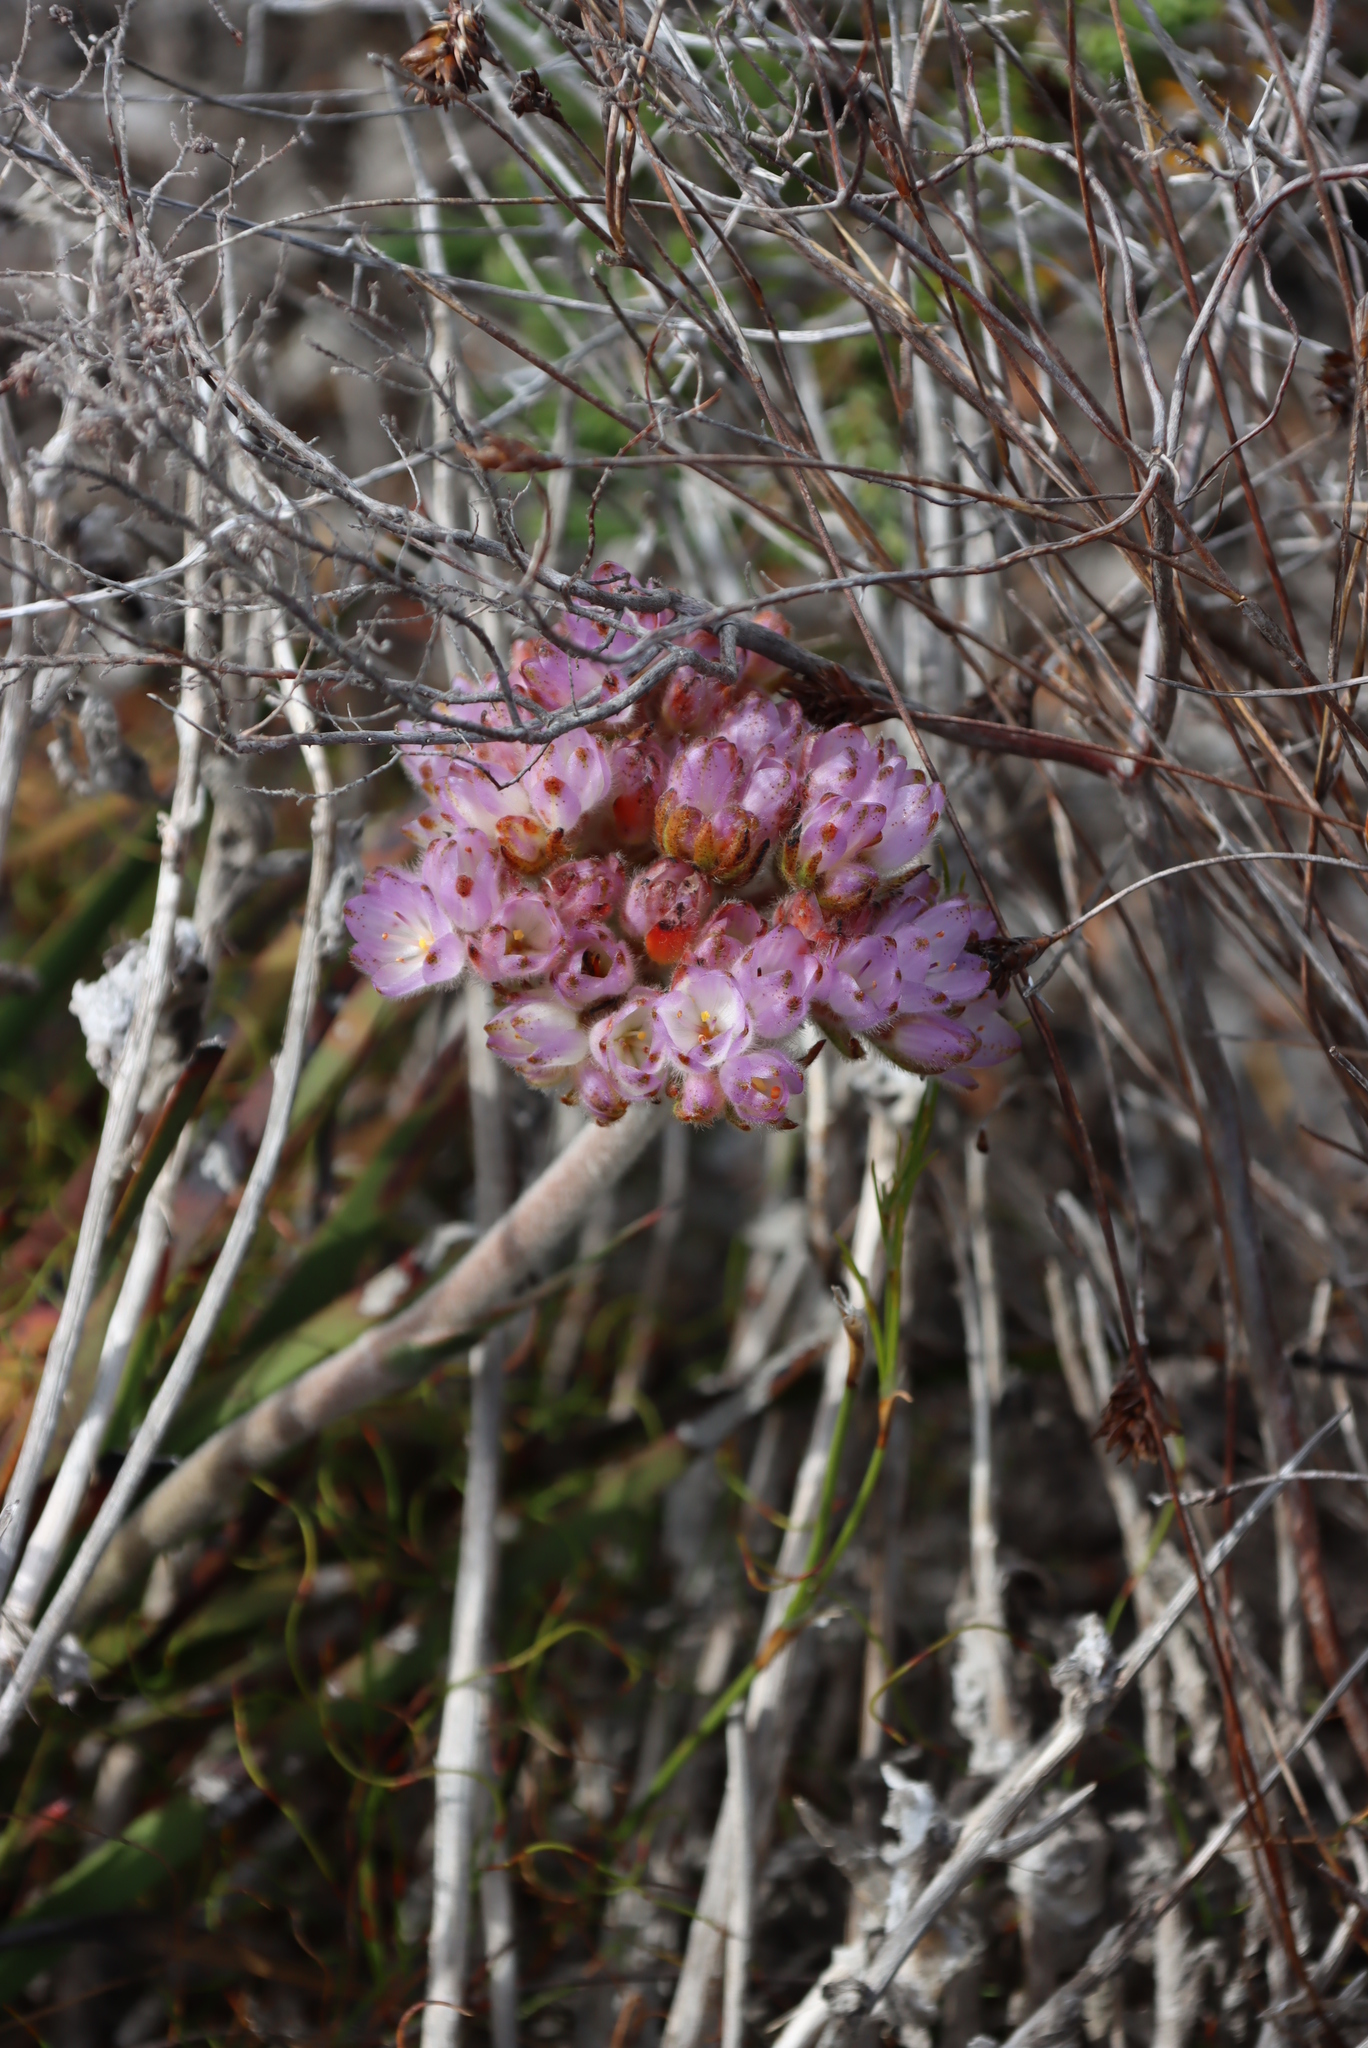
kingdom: Plantae
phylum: Tracheophyta
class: Liliopsida
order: Commelinales
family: Haemodoraceae
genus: Dilatris
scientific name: Dilatris pillansii
